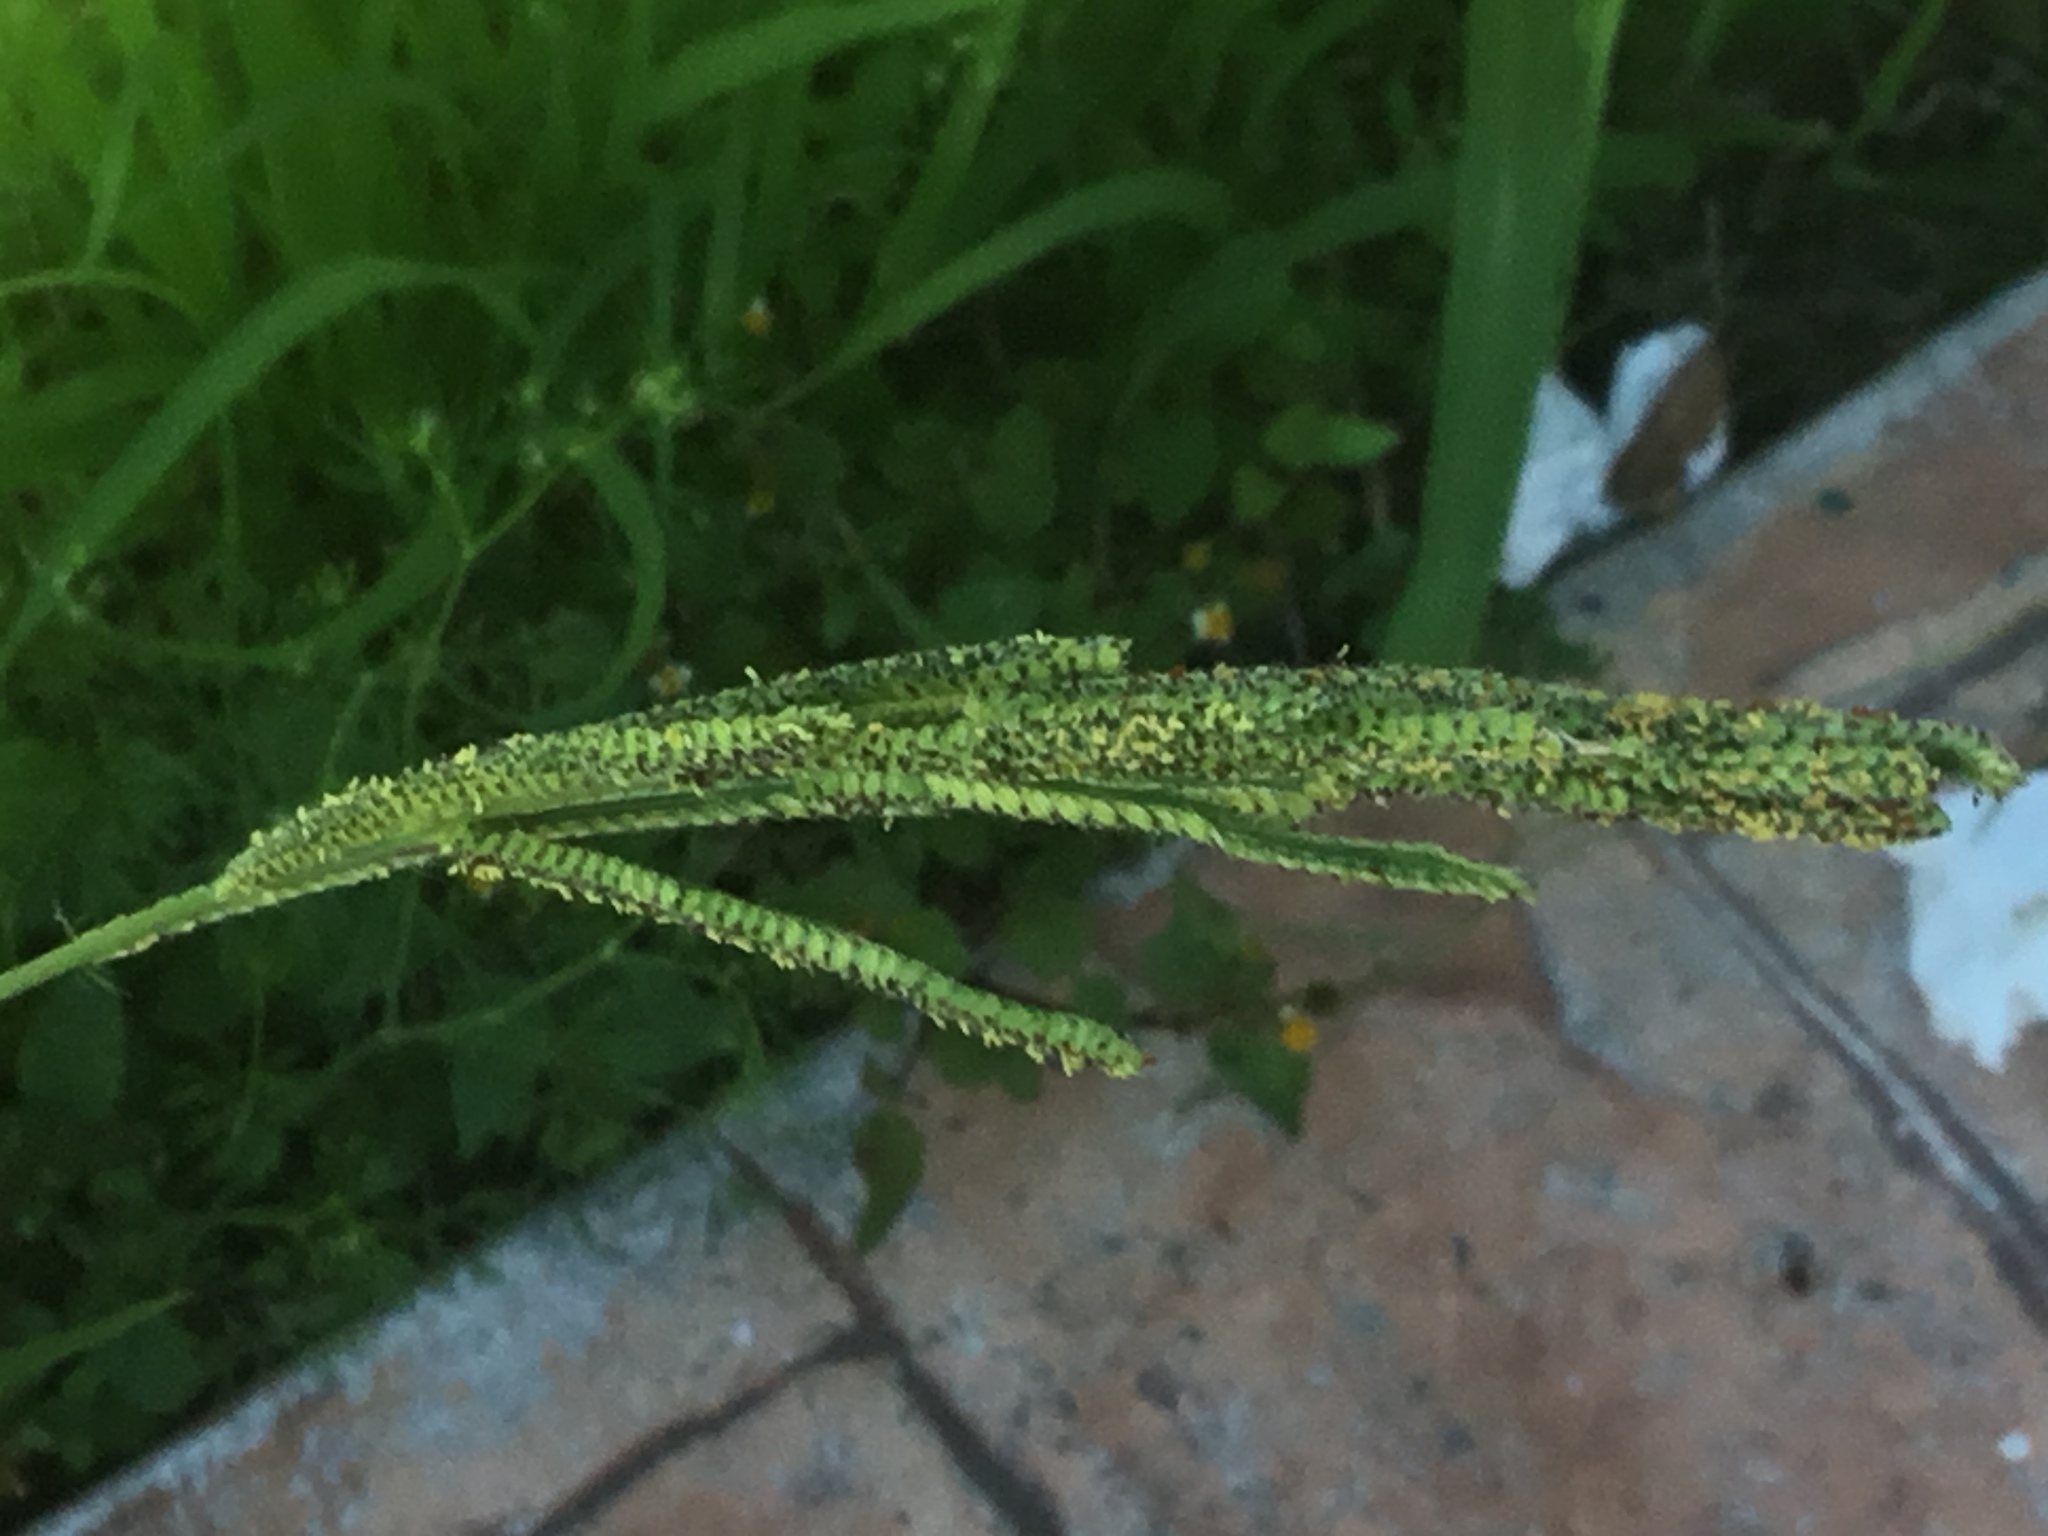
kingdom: Plantae
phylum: Tracheophyta
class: Liliopsida
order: Poales
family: Poaceae
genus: Paspalum
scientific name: Paspalum urvillei
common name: Vasey's grass
